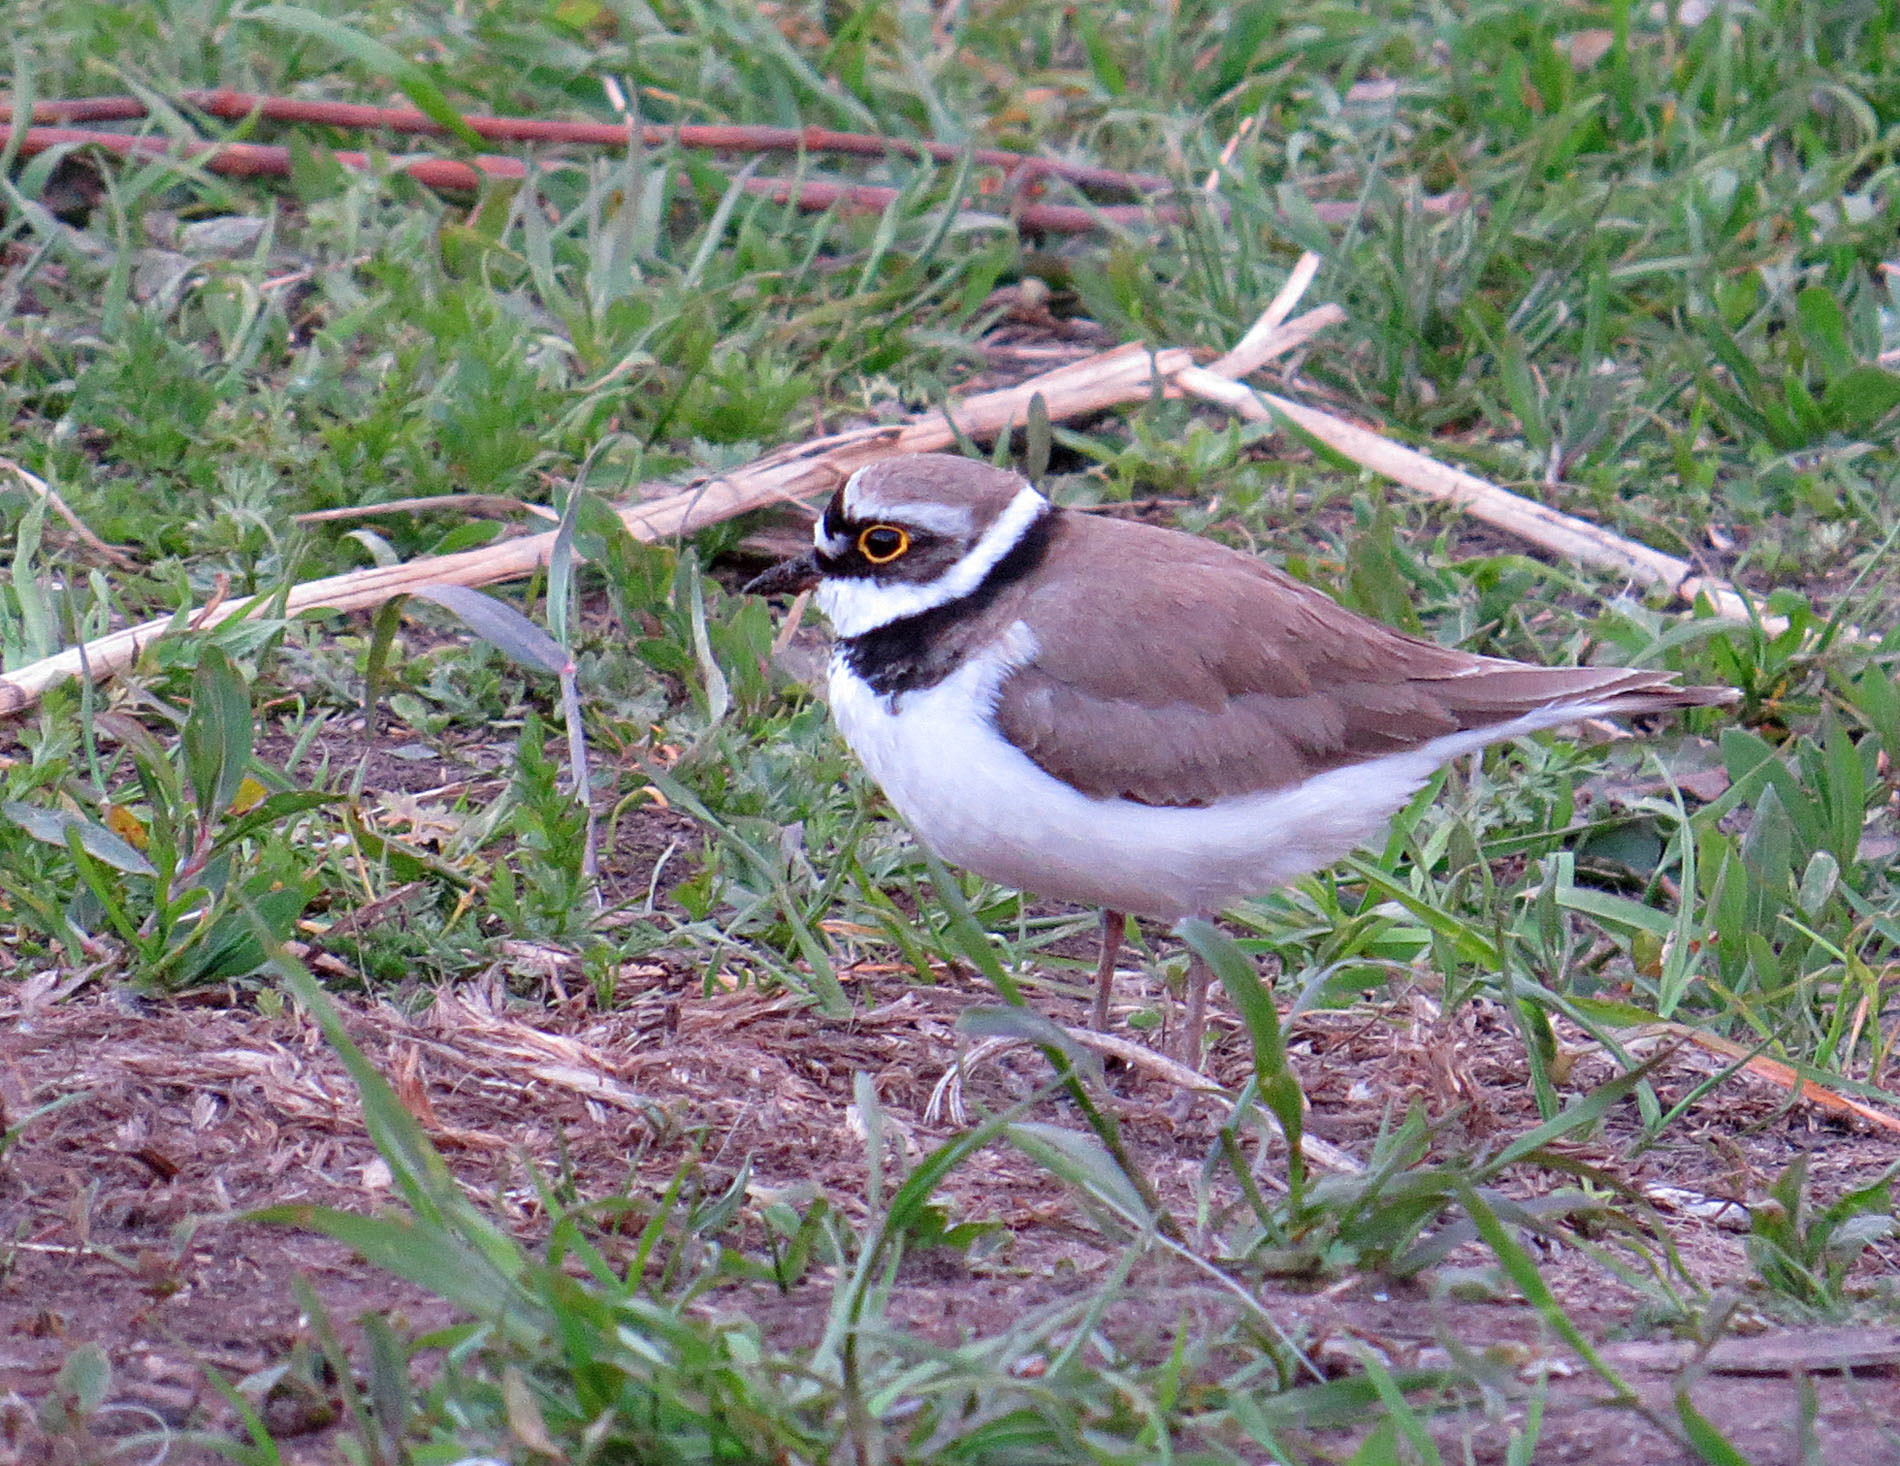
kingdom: Animalia
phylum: Chordata
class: Aves
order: Charadriiformes
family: Charadriidae
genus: Charadrius
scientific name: Charadrius dubius
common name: Little ringed plover
